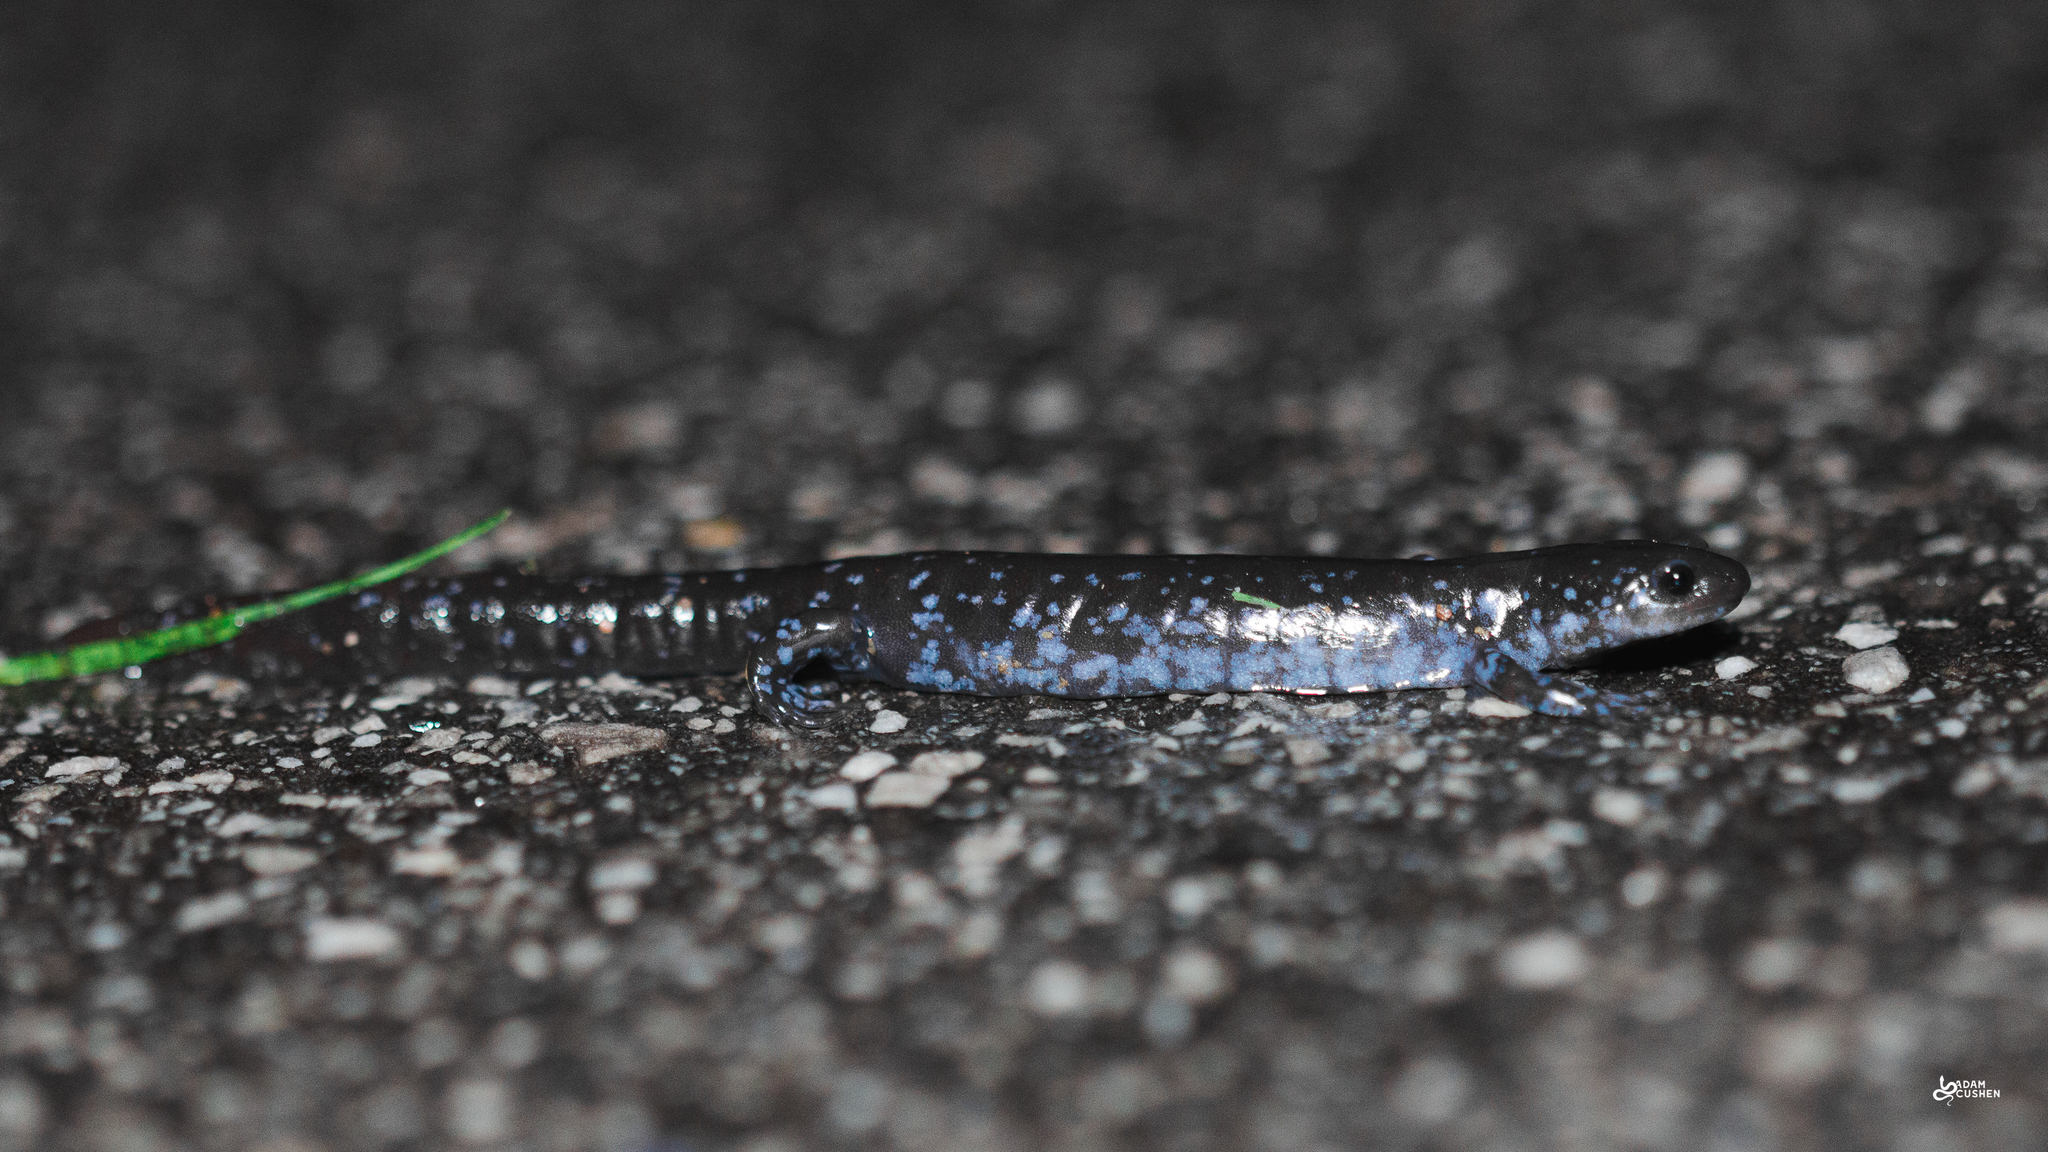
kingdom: Animalia
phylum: Chordata
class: Amphibia
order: Caudata
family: Ambystomatidae
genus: Ambystoma
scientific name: Ambystoma laterale
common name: Blue-spotted salamander
